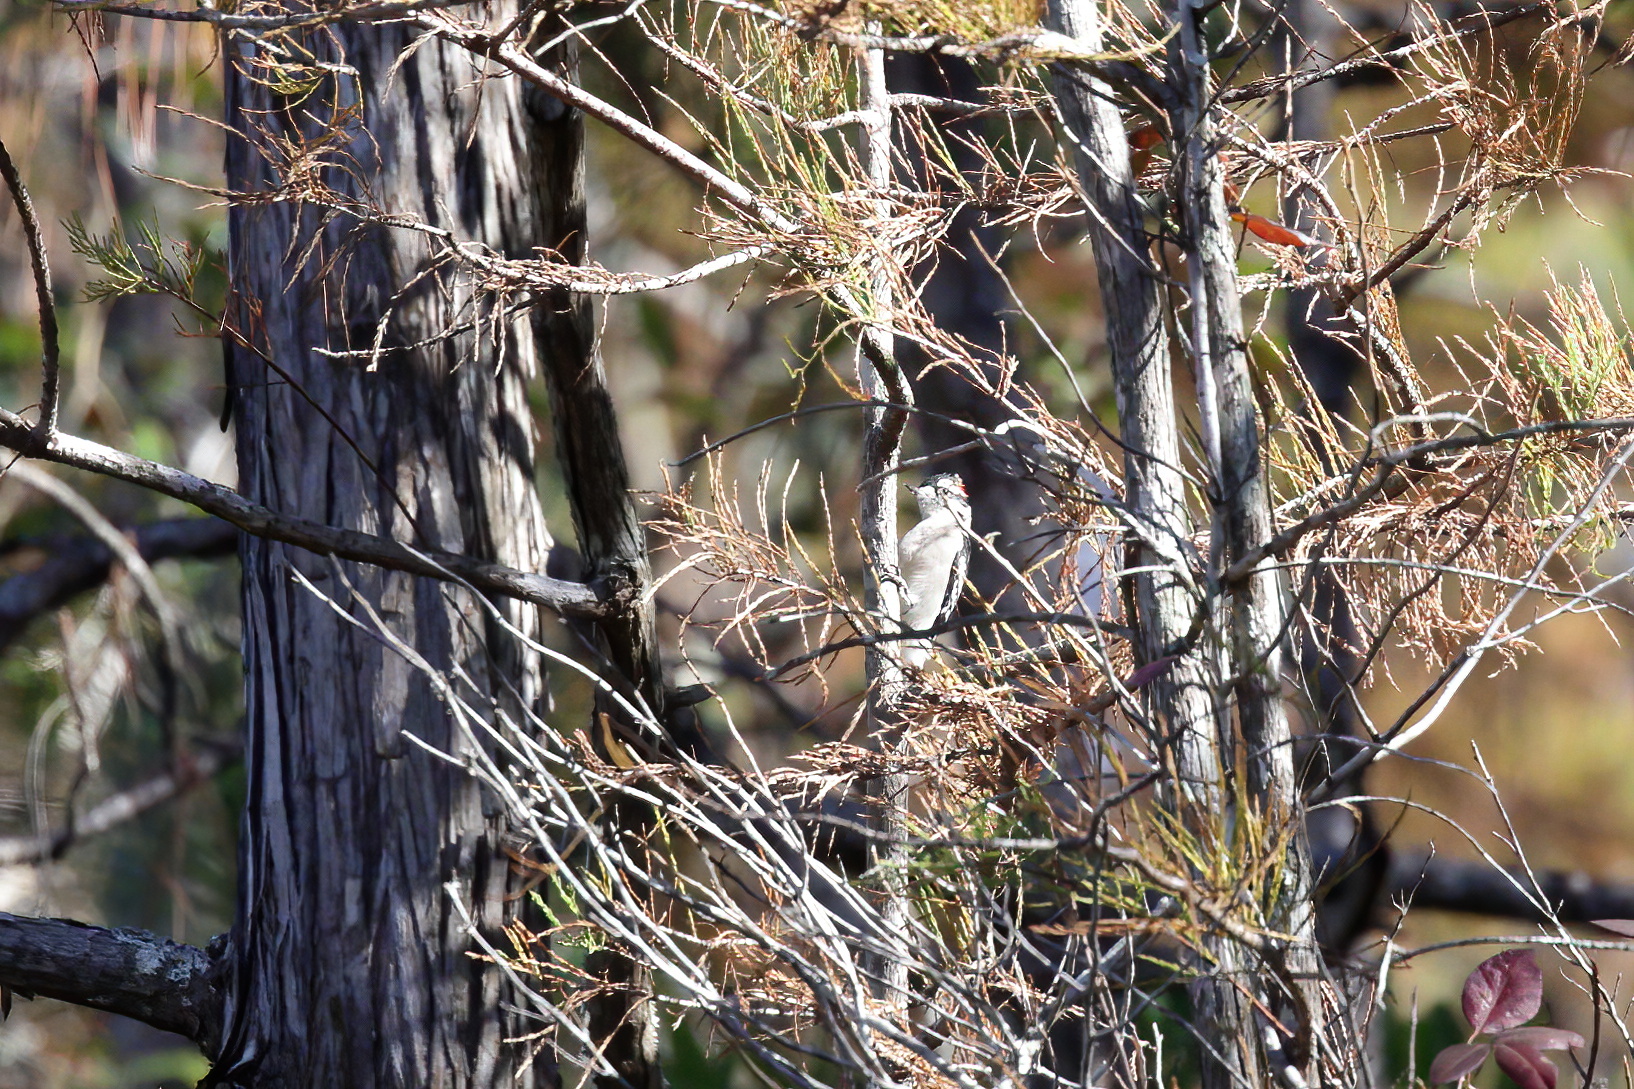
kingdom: Animalia
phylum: Chordata
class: Aves
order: Piciformes
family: Picidae
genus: Dryobates
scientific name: Dryobates pubescens
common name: Downy woodpecker
